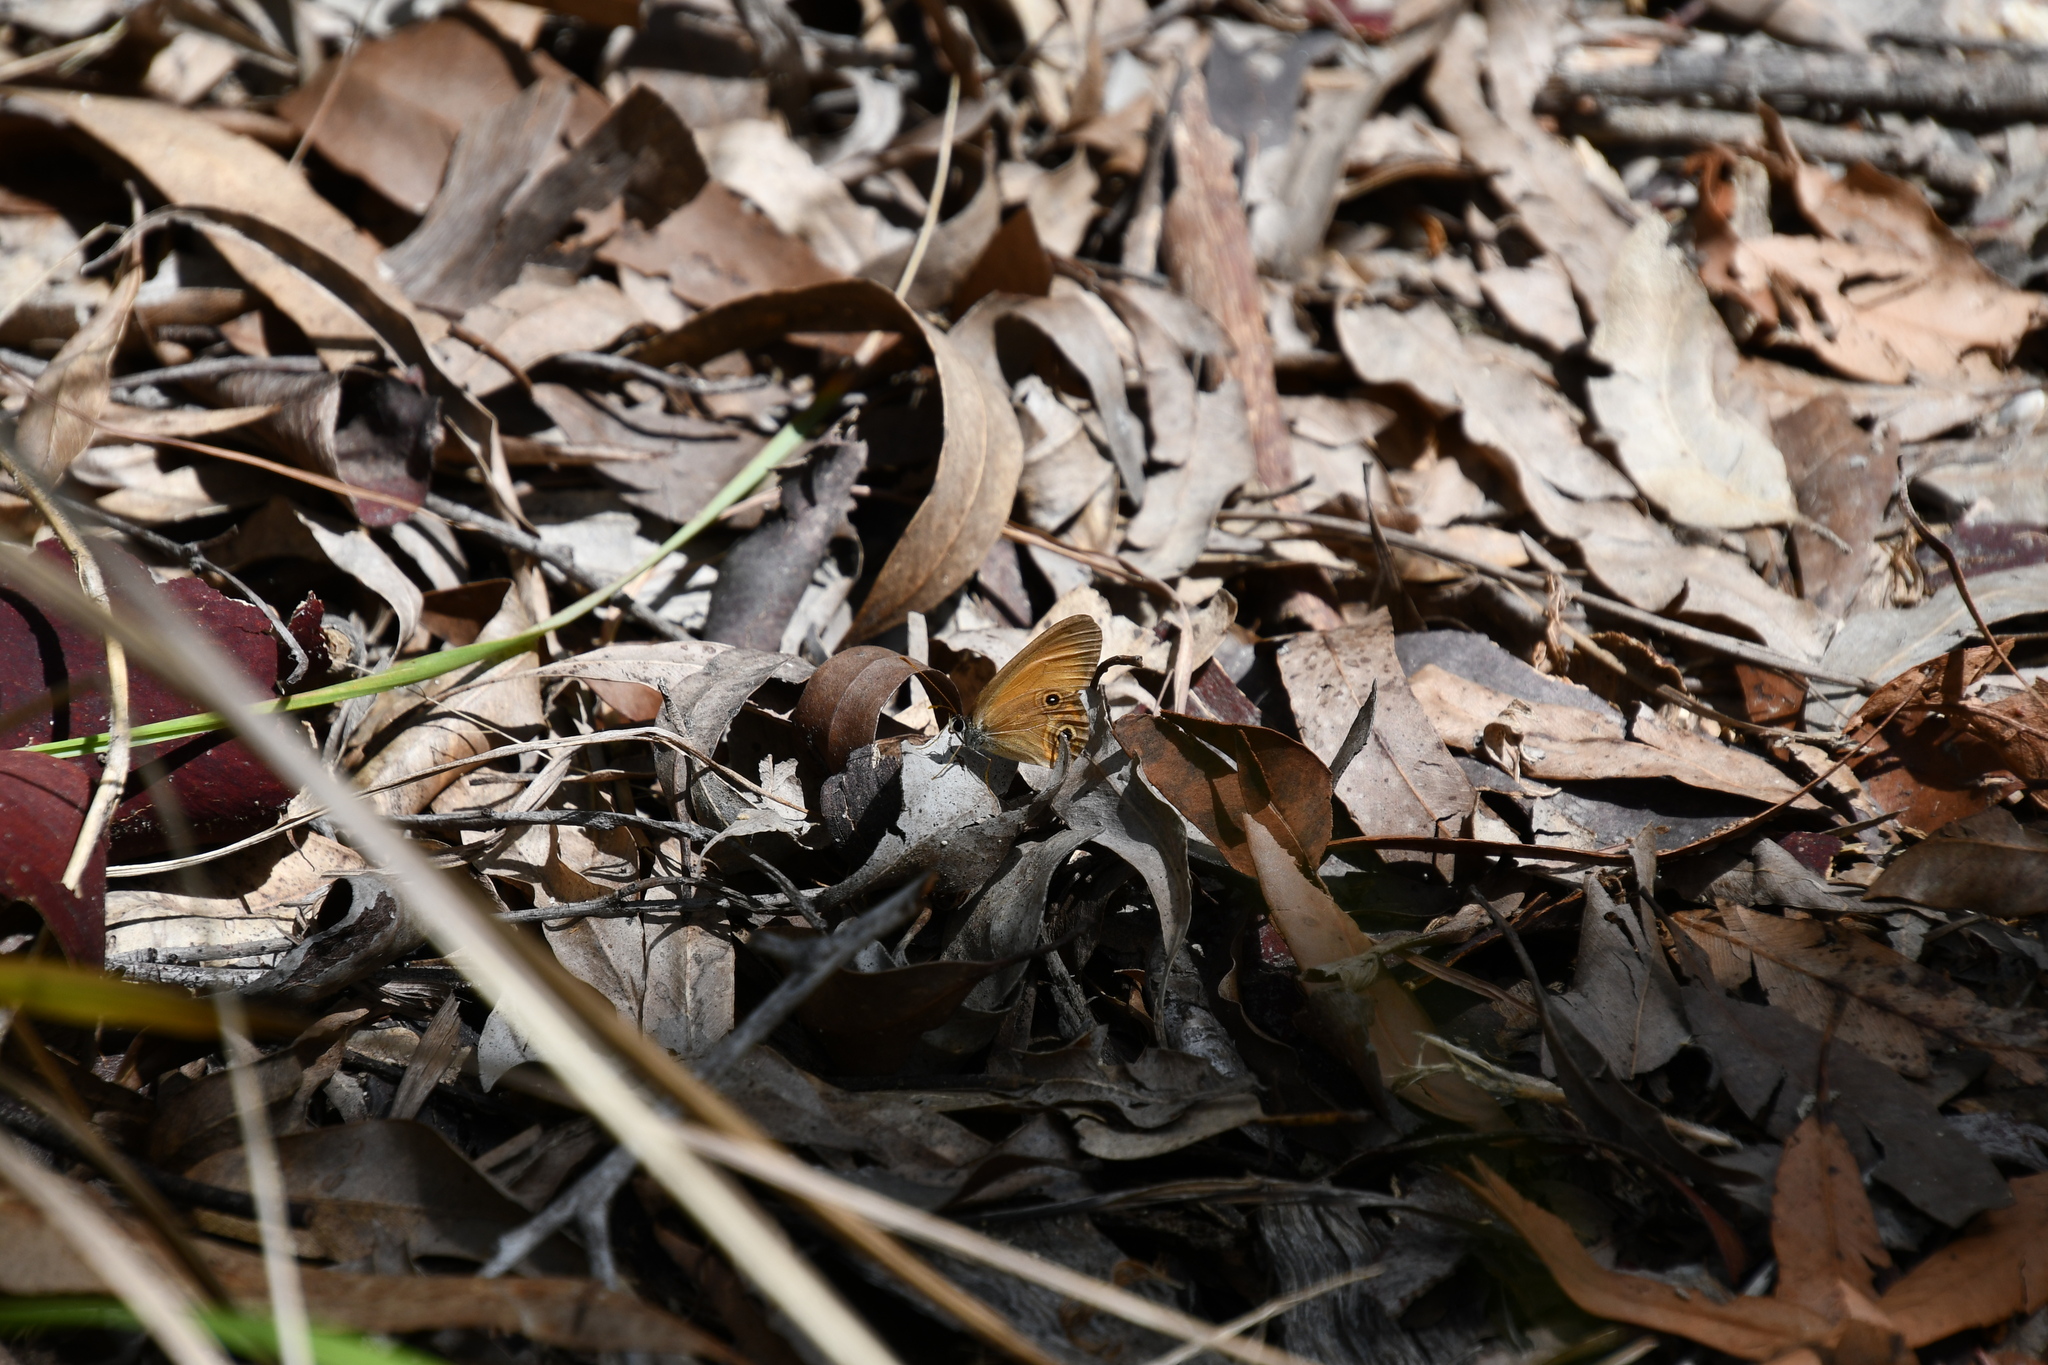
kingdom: Animalia
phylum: Arthropoda
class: Insecta
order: Lepidoptera
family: Nymphalidae
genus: Hypocysta
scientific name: Hypocysta adiante
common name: Orange ringlet
